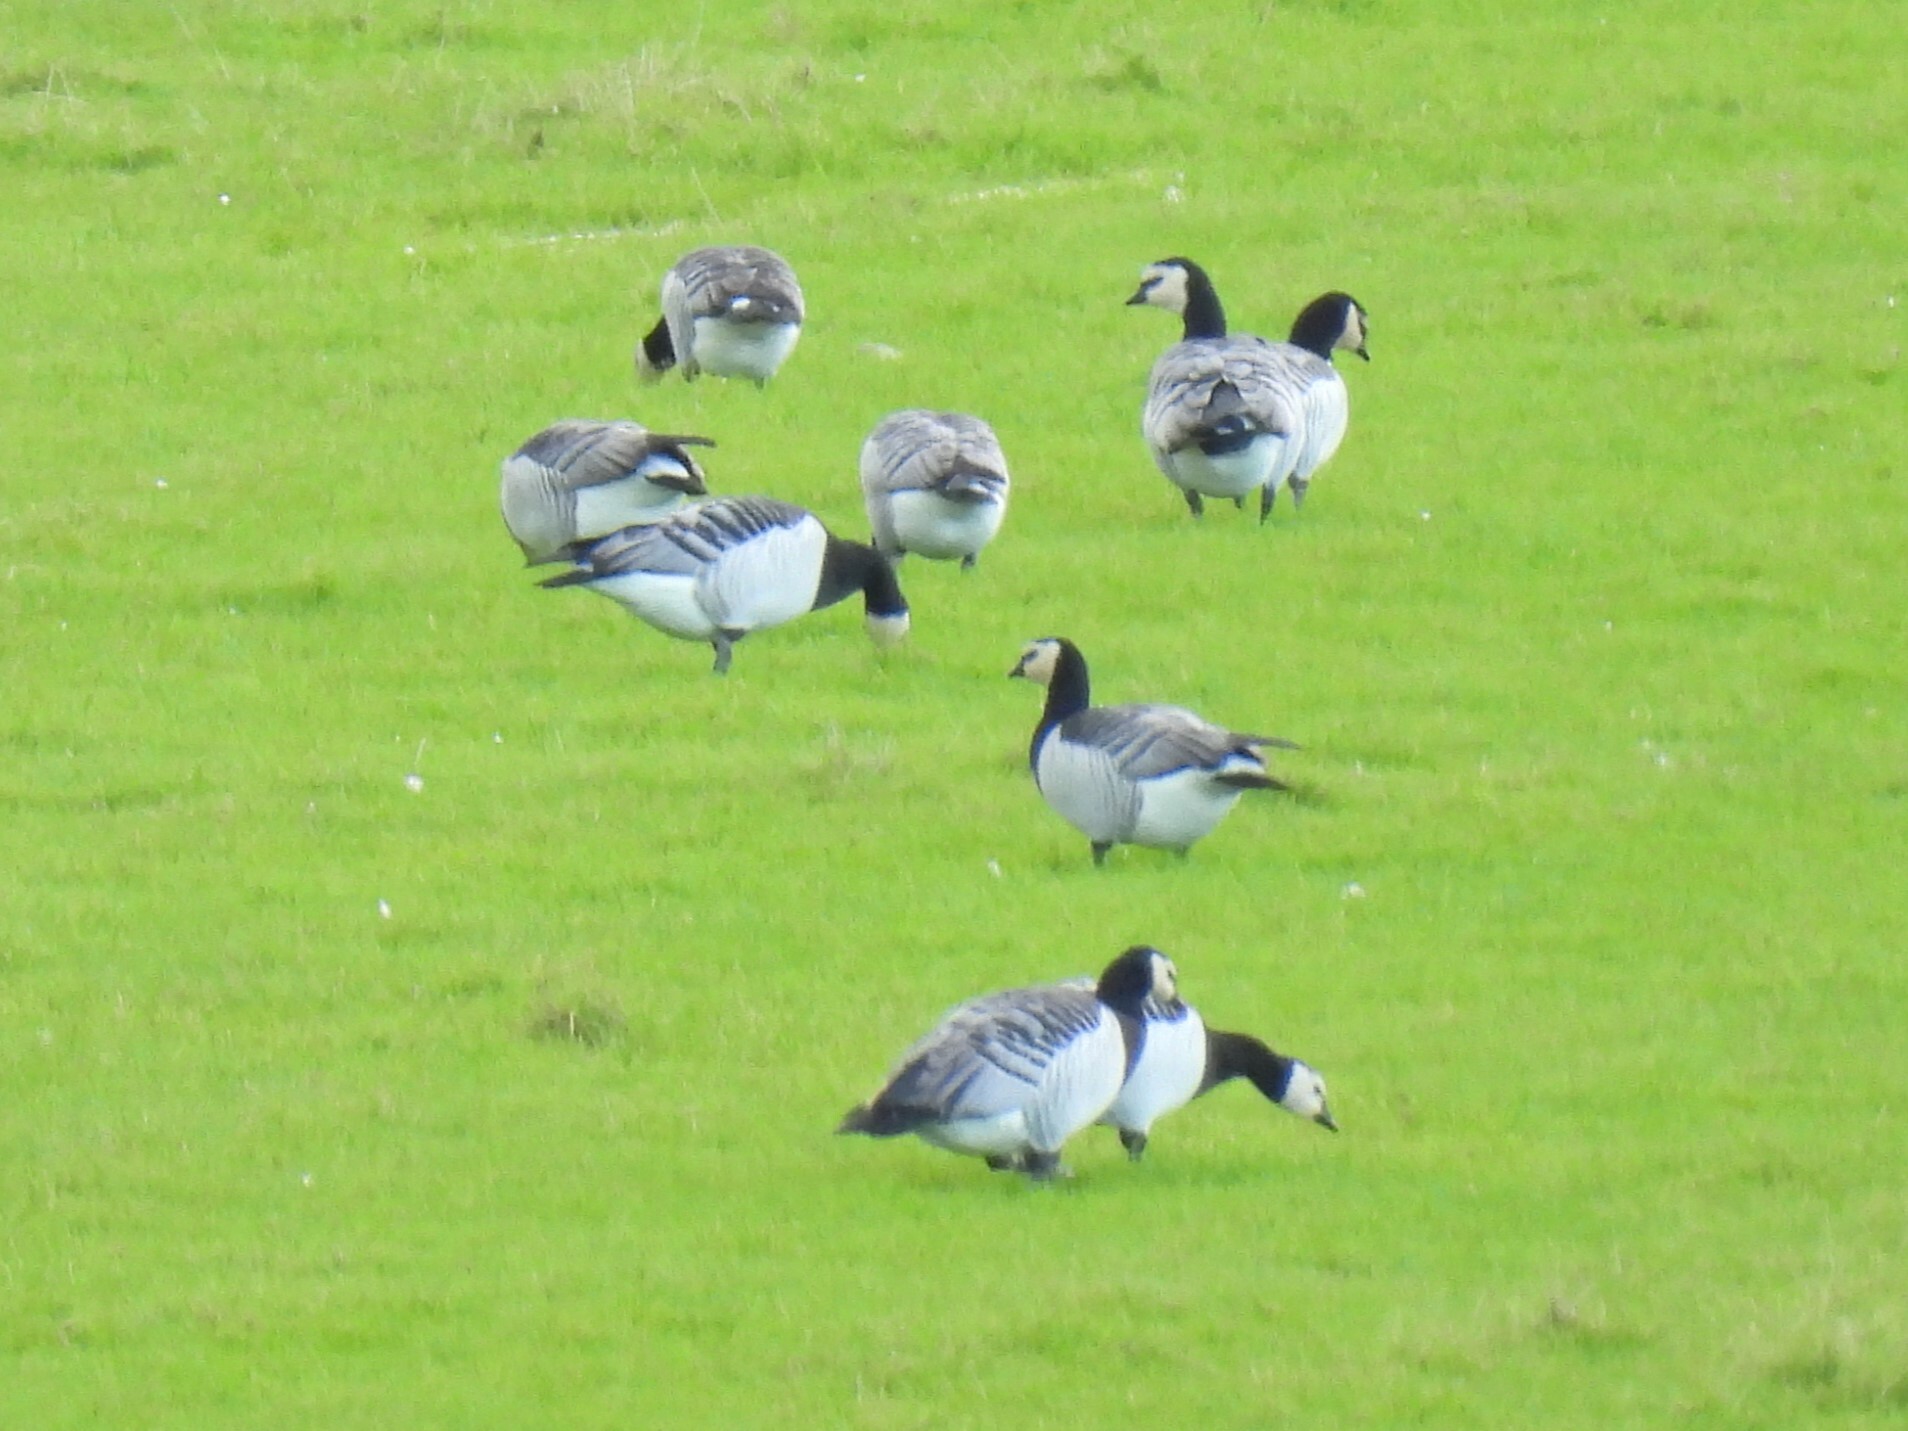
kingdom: Animalia
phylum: Chordata
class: Aves
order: Anseriformes
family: Anatidae
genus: Branta
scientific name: Branta leucopsis
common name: Barnacle goose
